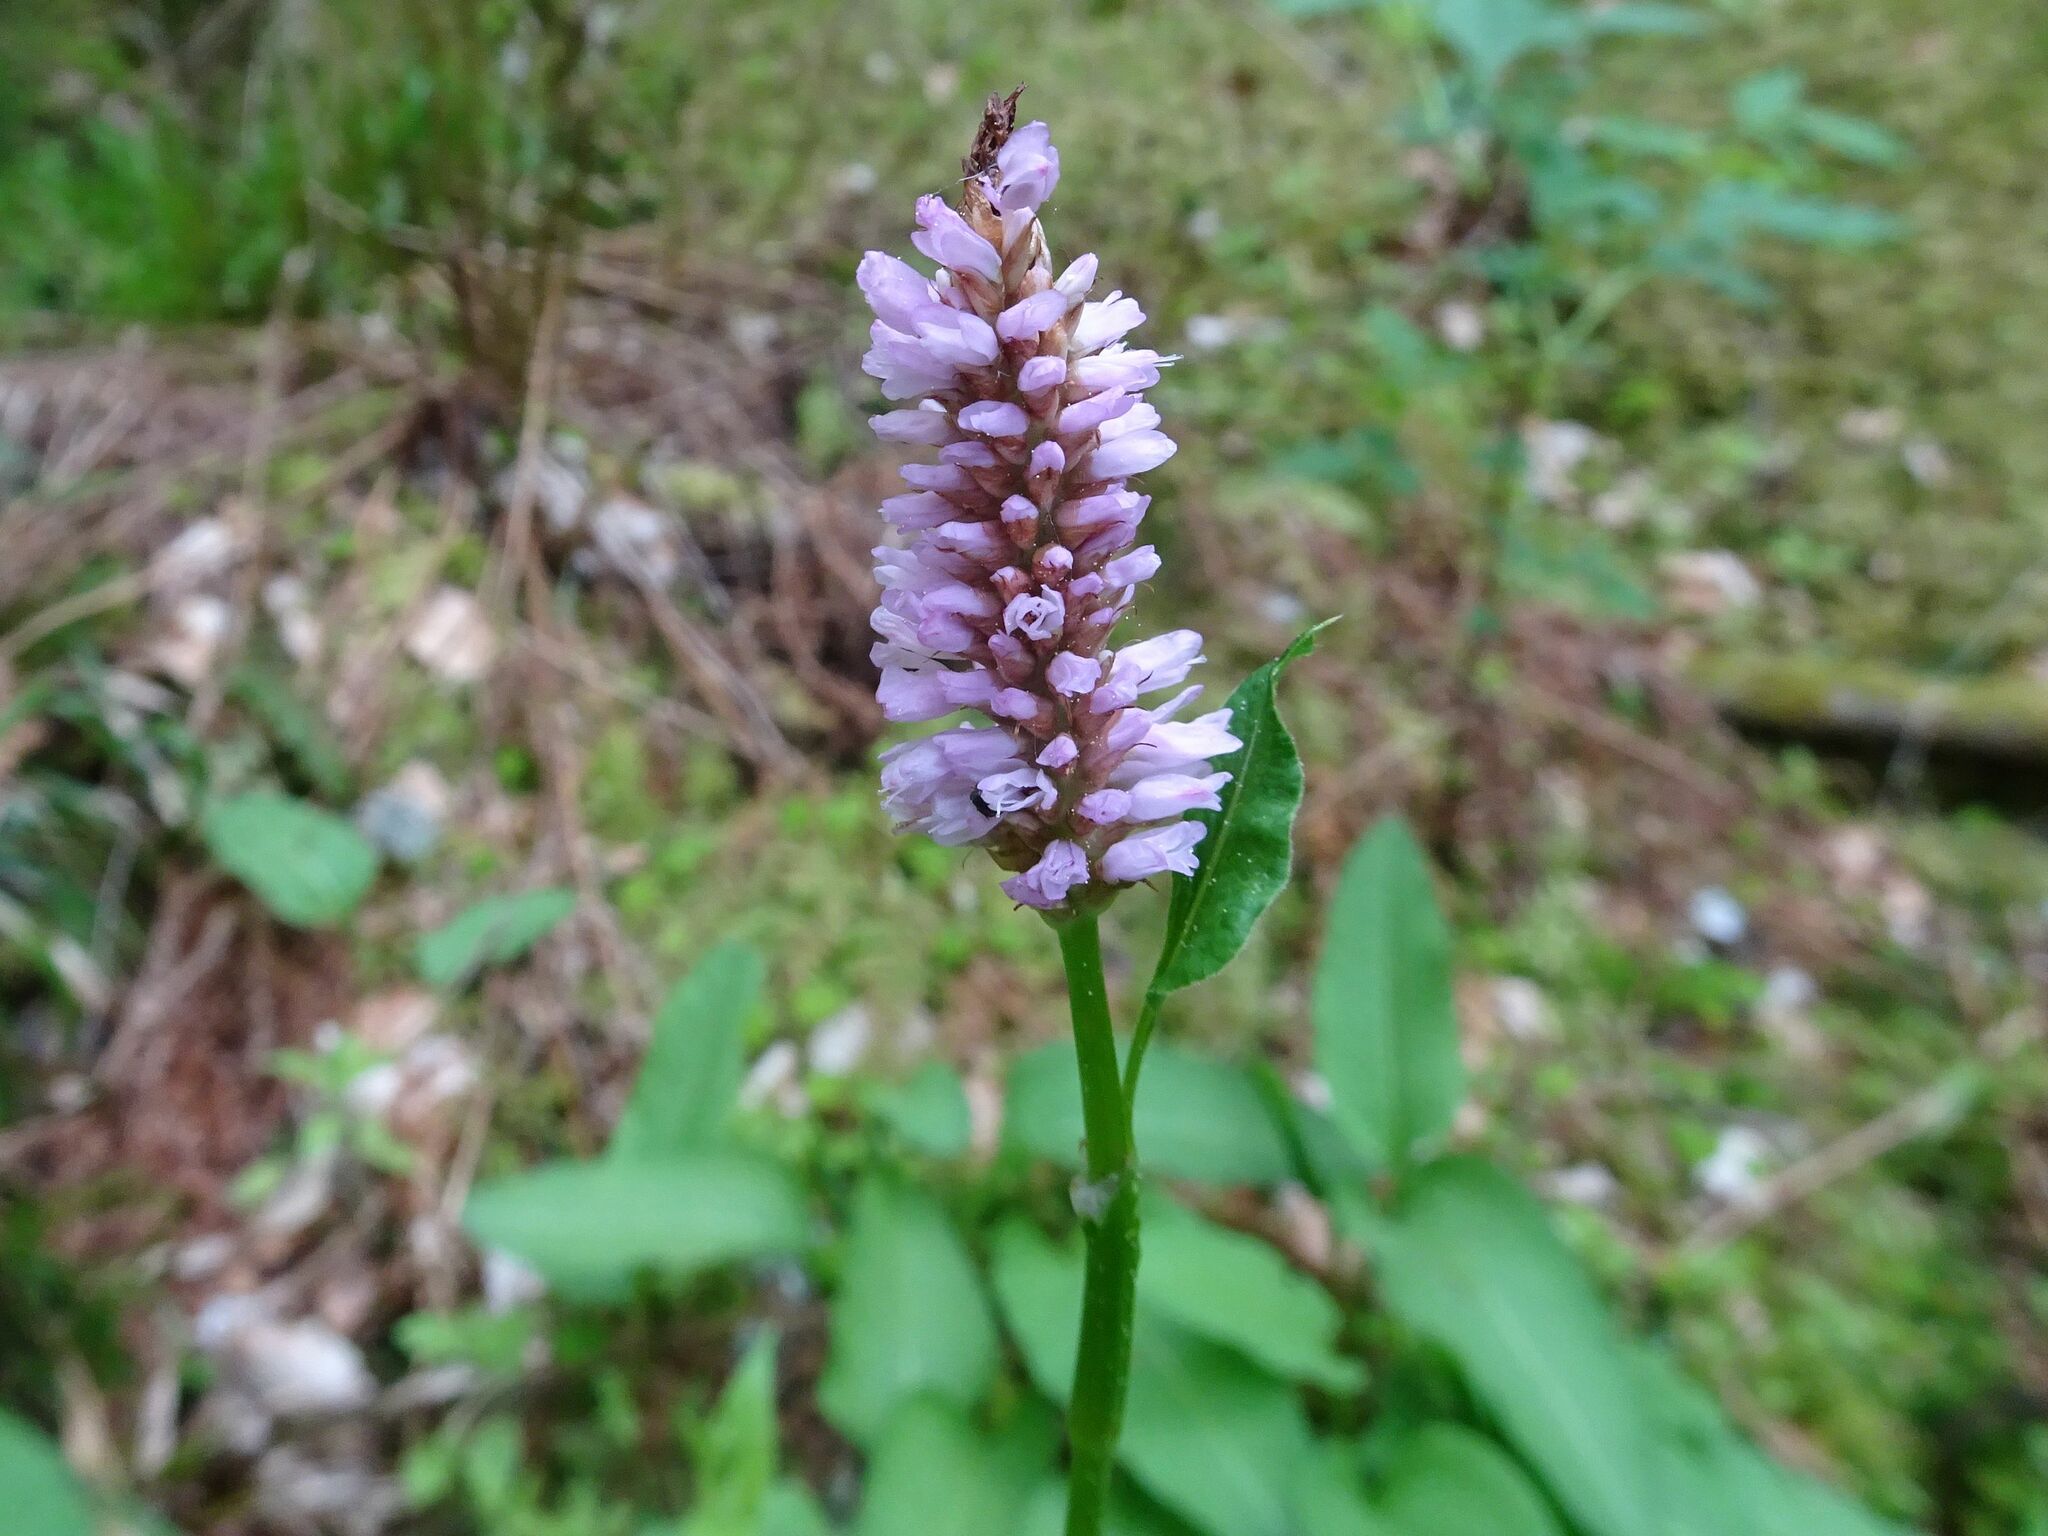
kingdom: Plantae
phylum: Tracheophyta
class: Magnoliopsida
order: Caryophyllales
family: Polygonaceae
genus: Bistorta
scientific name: Bistorta officinalis
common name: Common bistort
